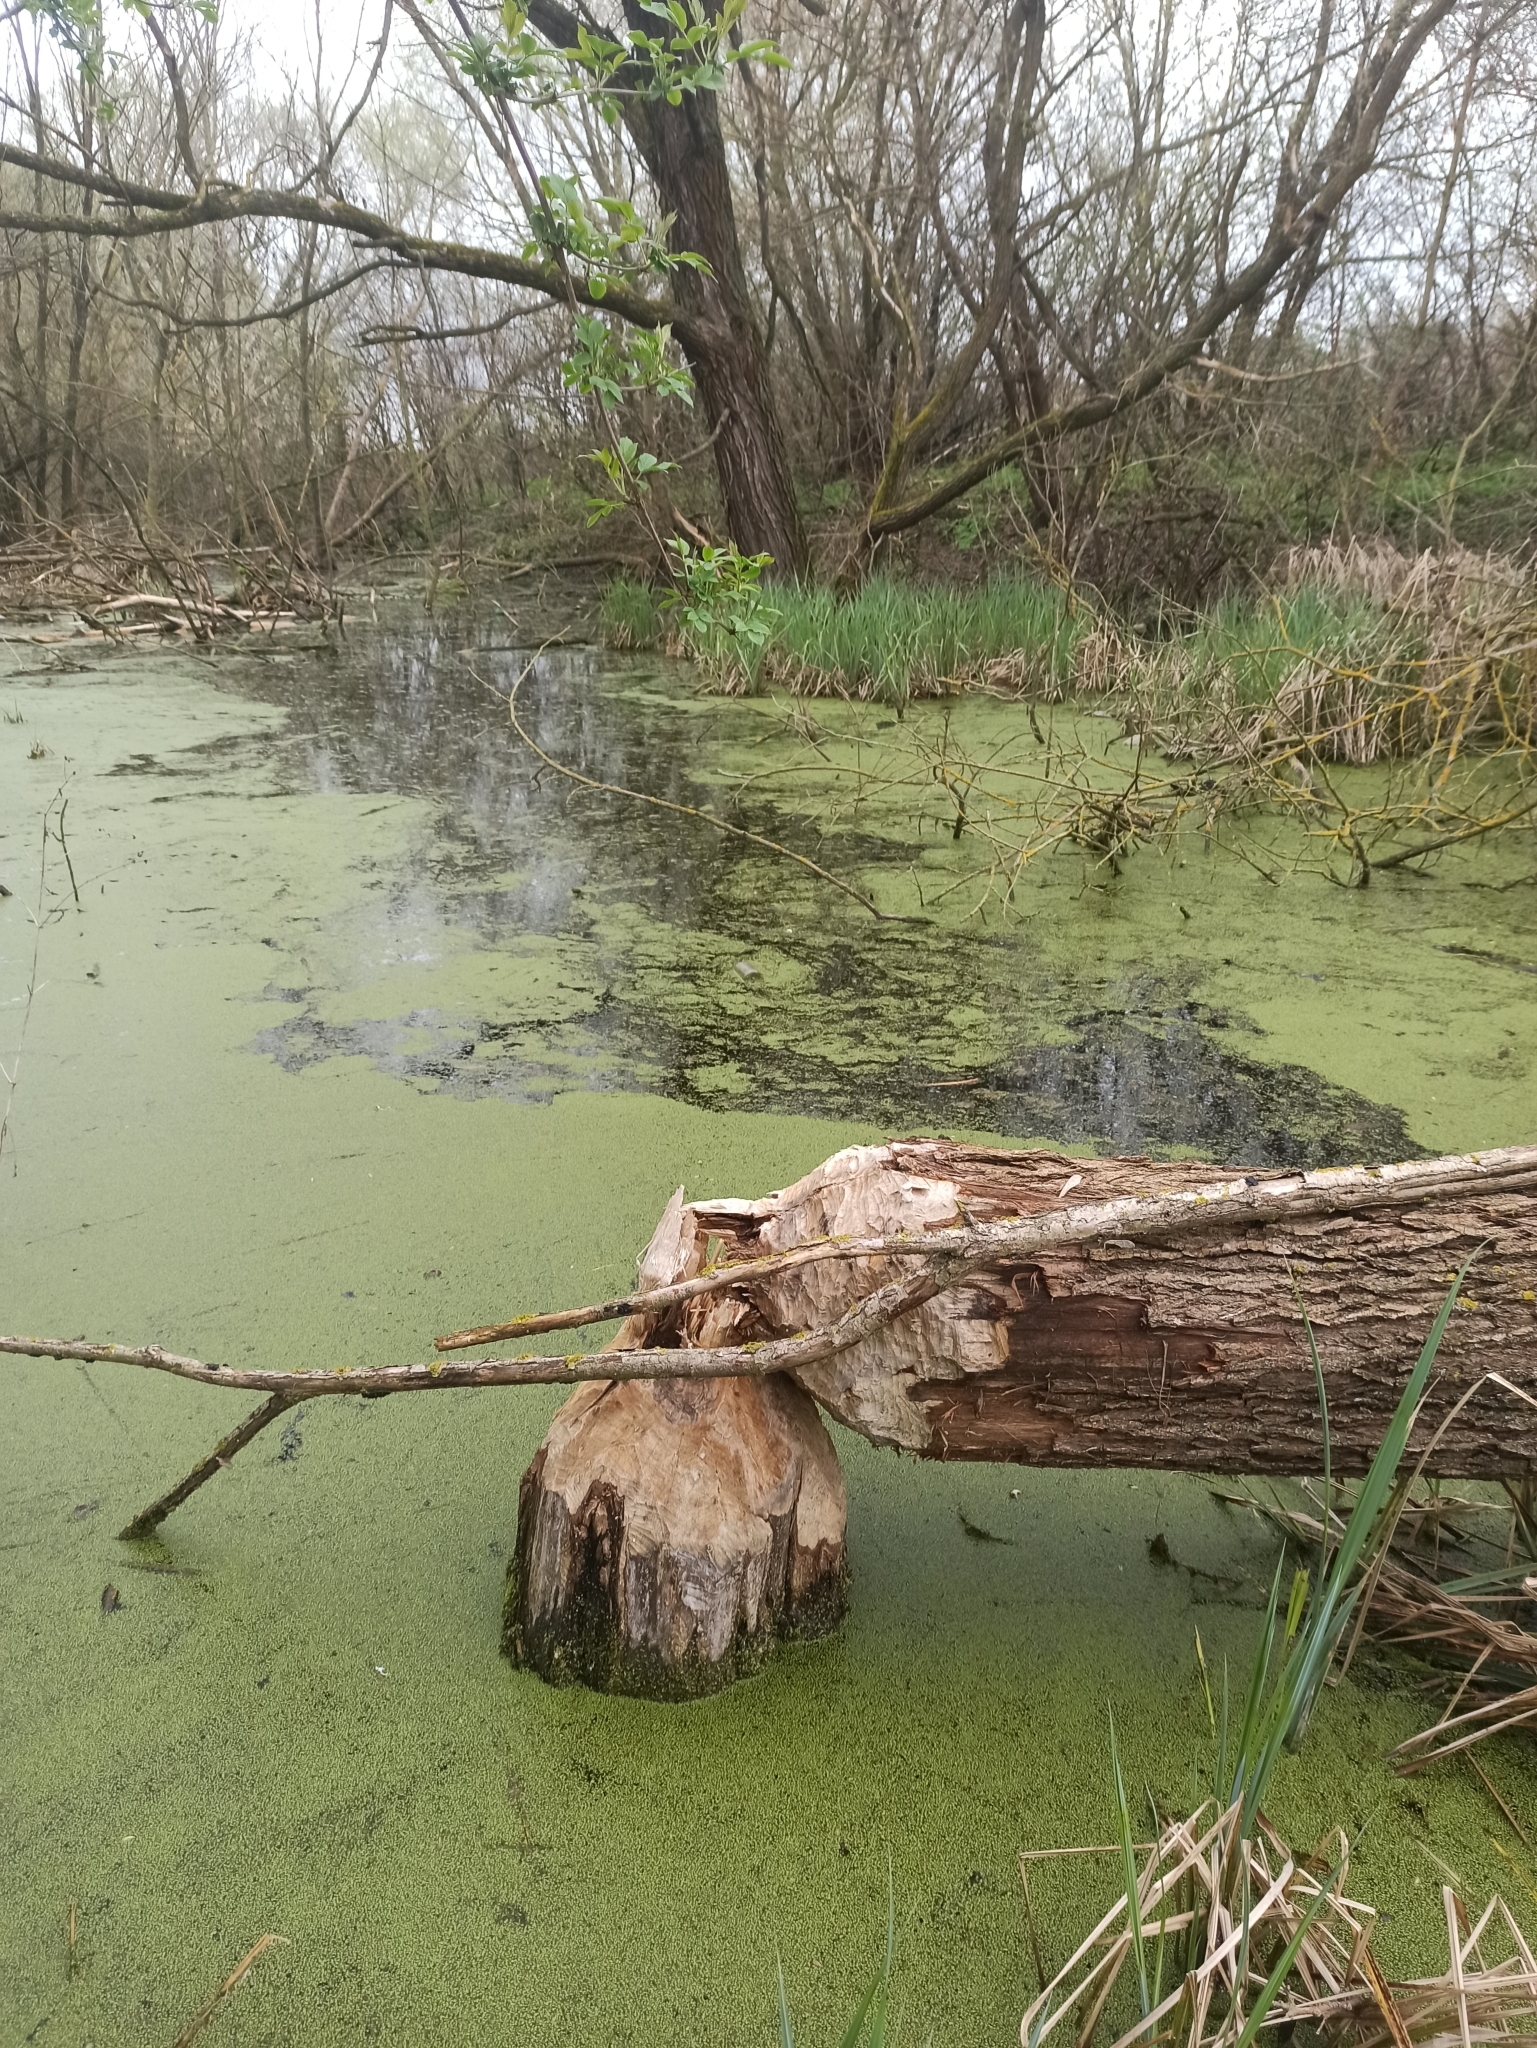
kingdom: Animalia
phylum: Chordata
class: Mammalia
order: Rodentia
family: Castoridae
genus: Castor
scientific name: Castor fiber
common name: Eurasian beaver
